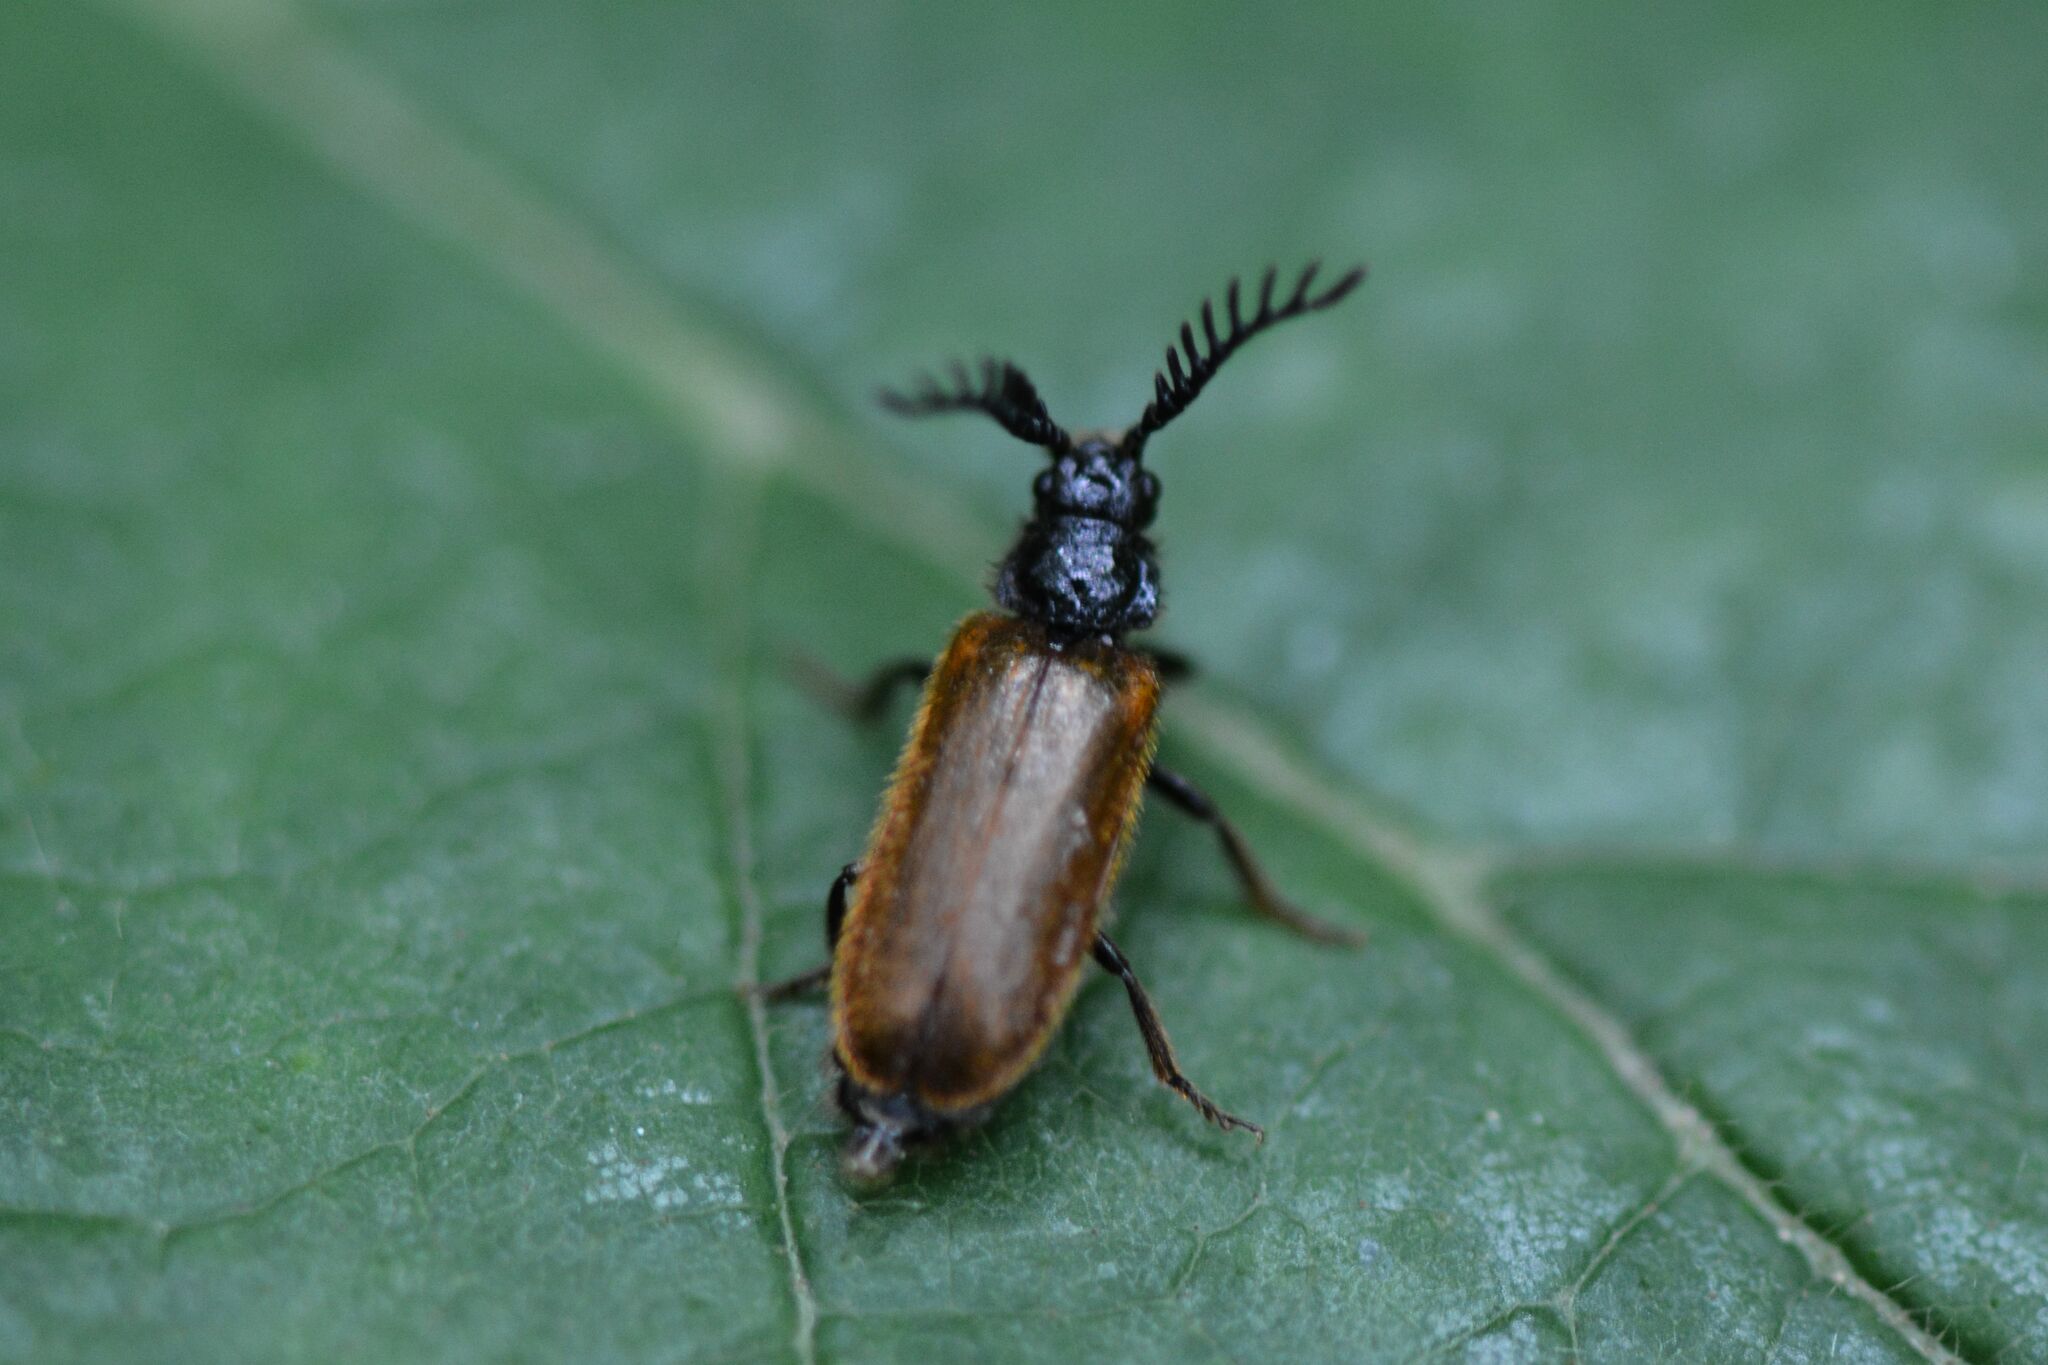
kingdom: Animalia
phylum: Arthropoda
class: Insecta
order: Coleoptera
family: Drilidae
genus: Drilus
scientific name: Drilus flavescens
